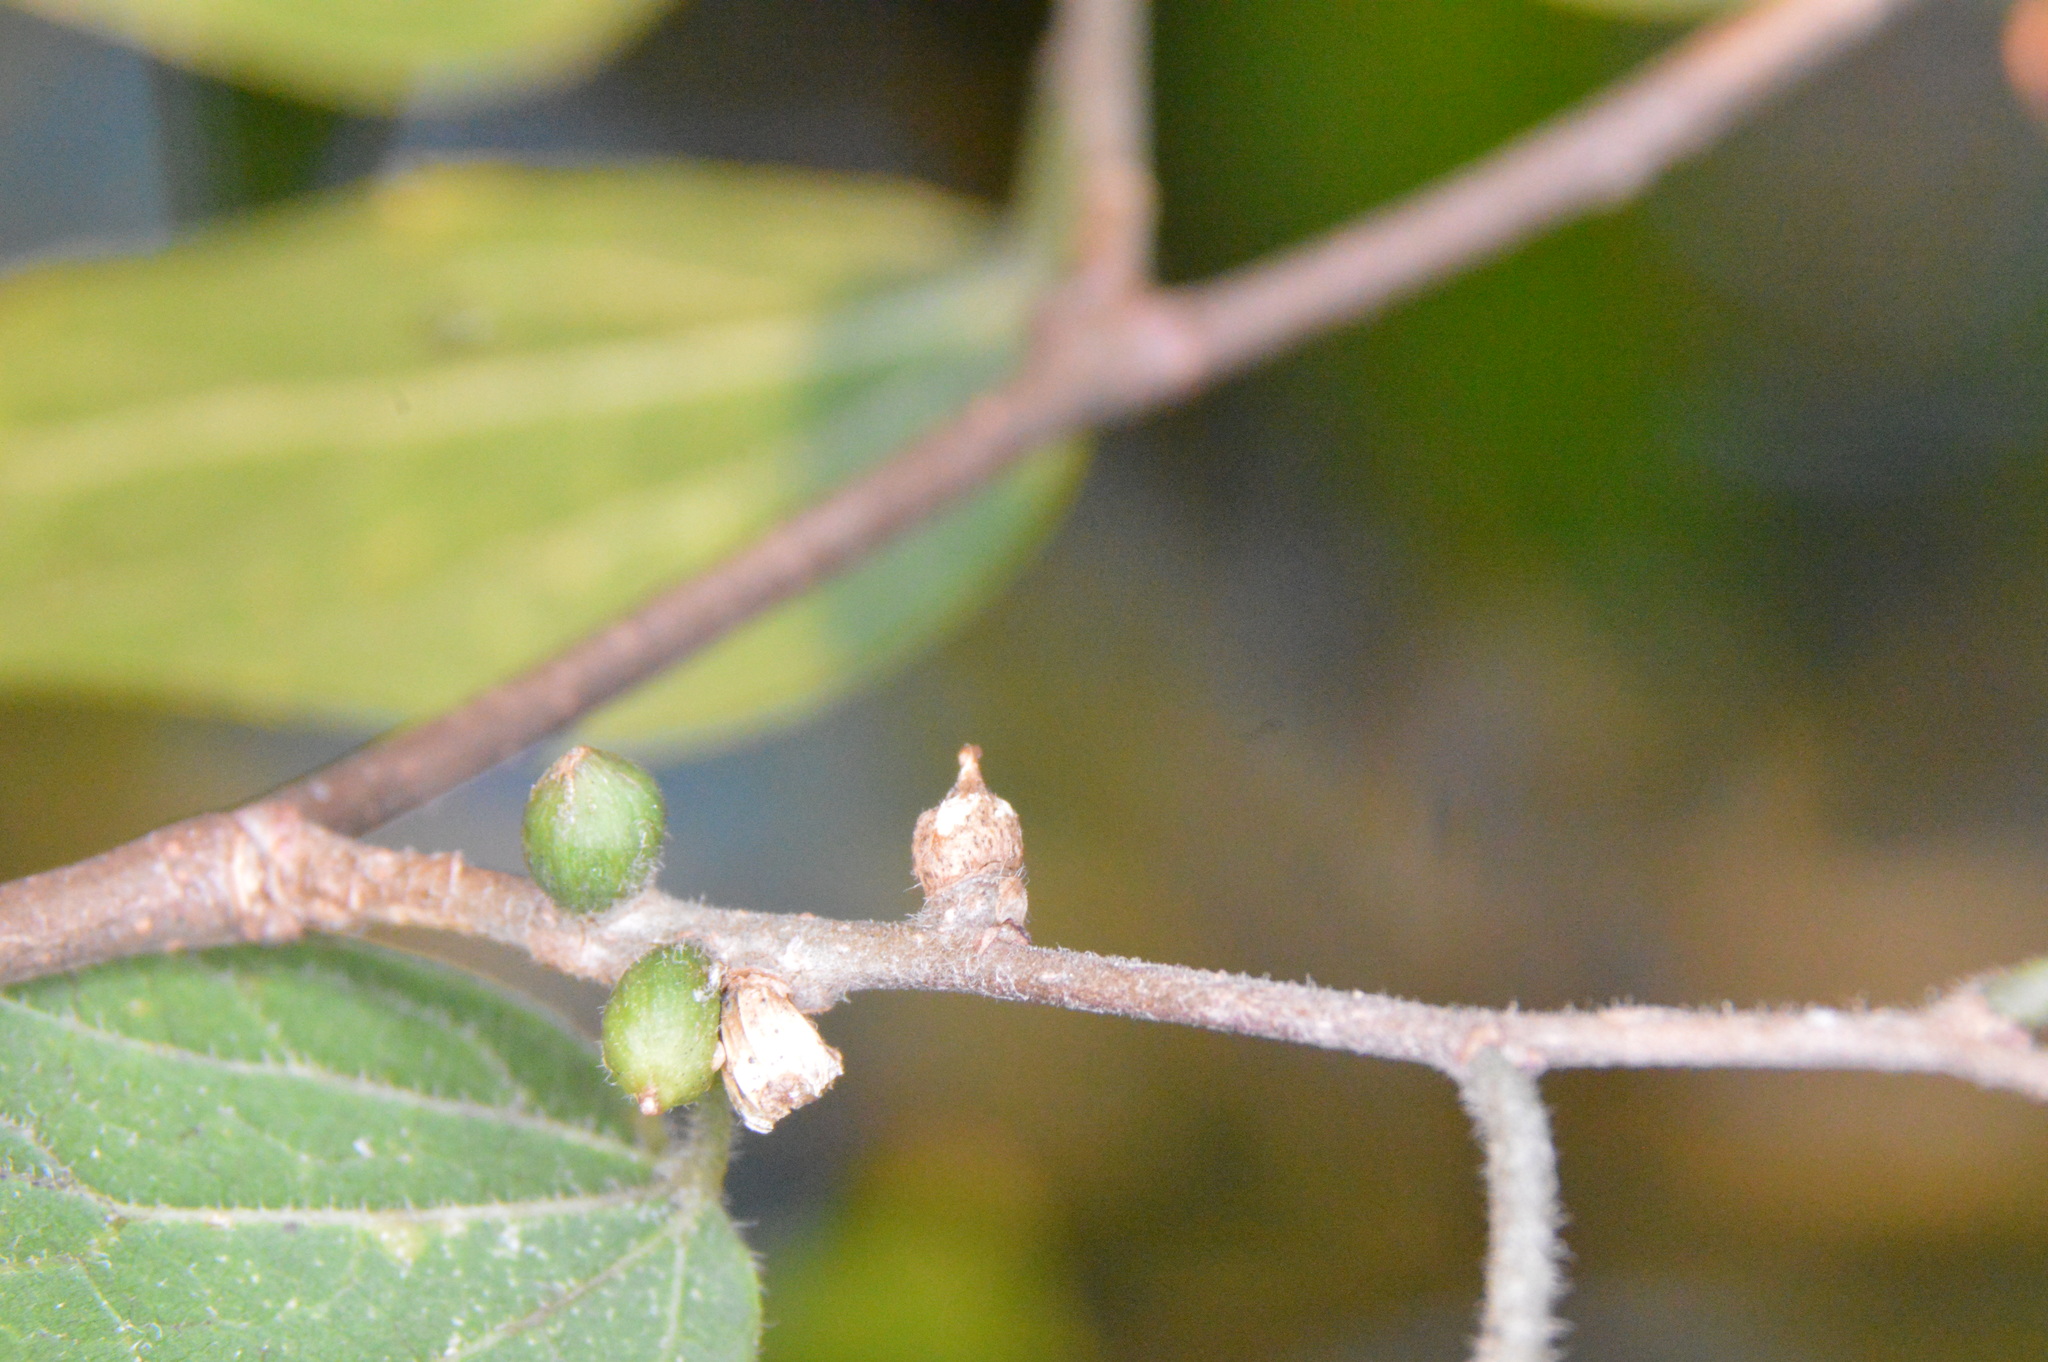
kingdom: Animalia
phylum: Arthropoda
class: Insecta
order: Diptera
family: Cecidomyiidae
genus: Celticecis
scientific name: Celticecis ramicola
